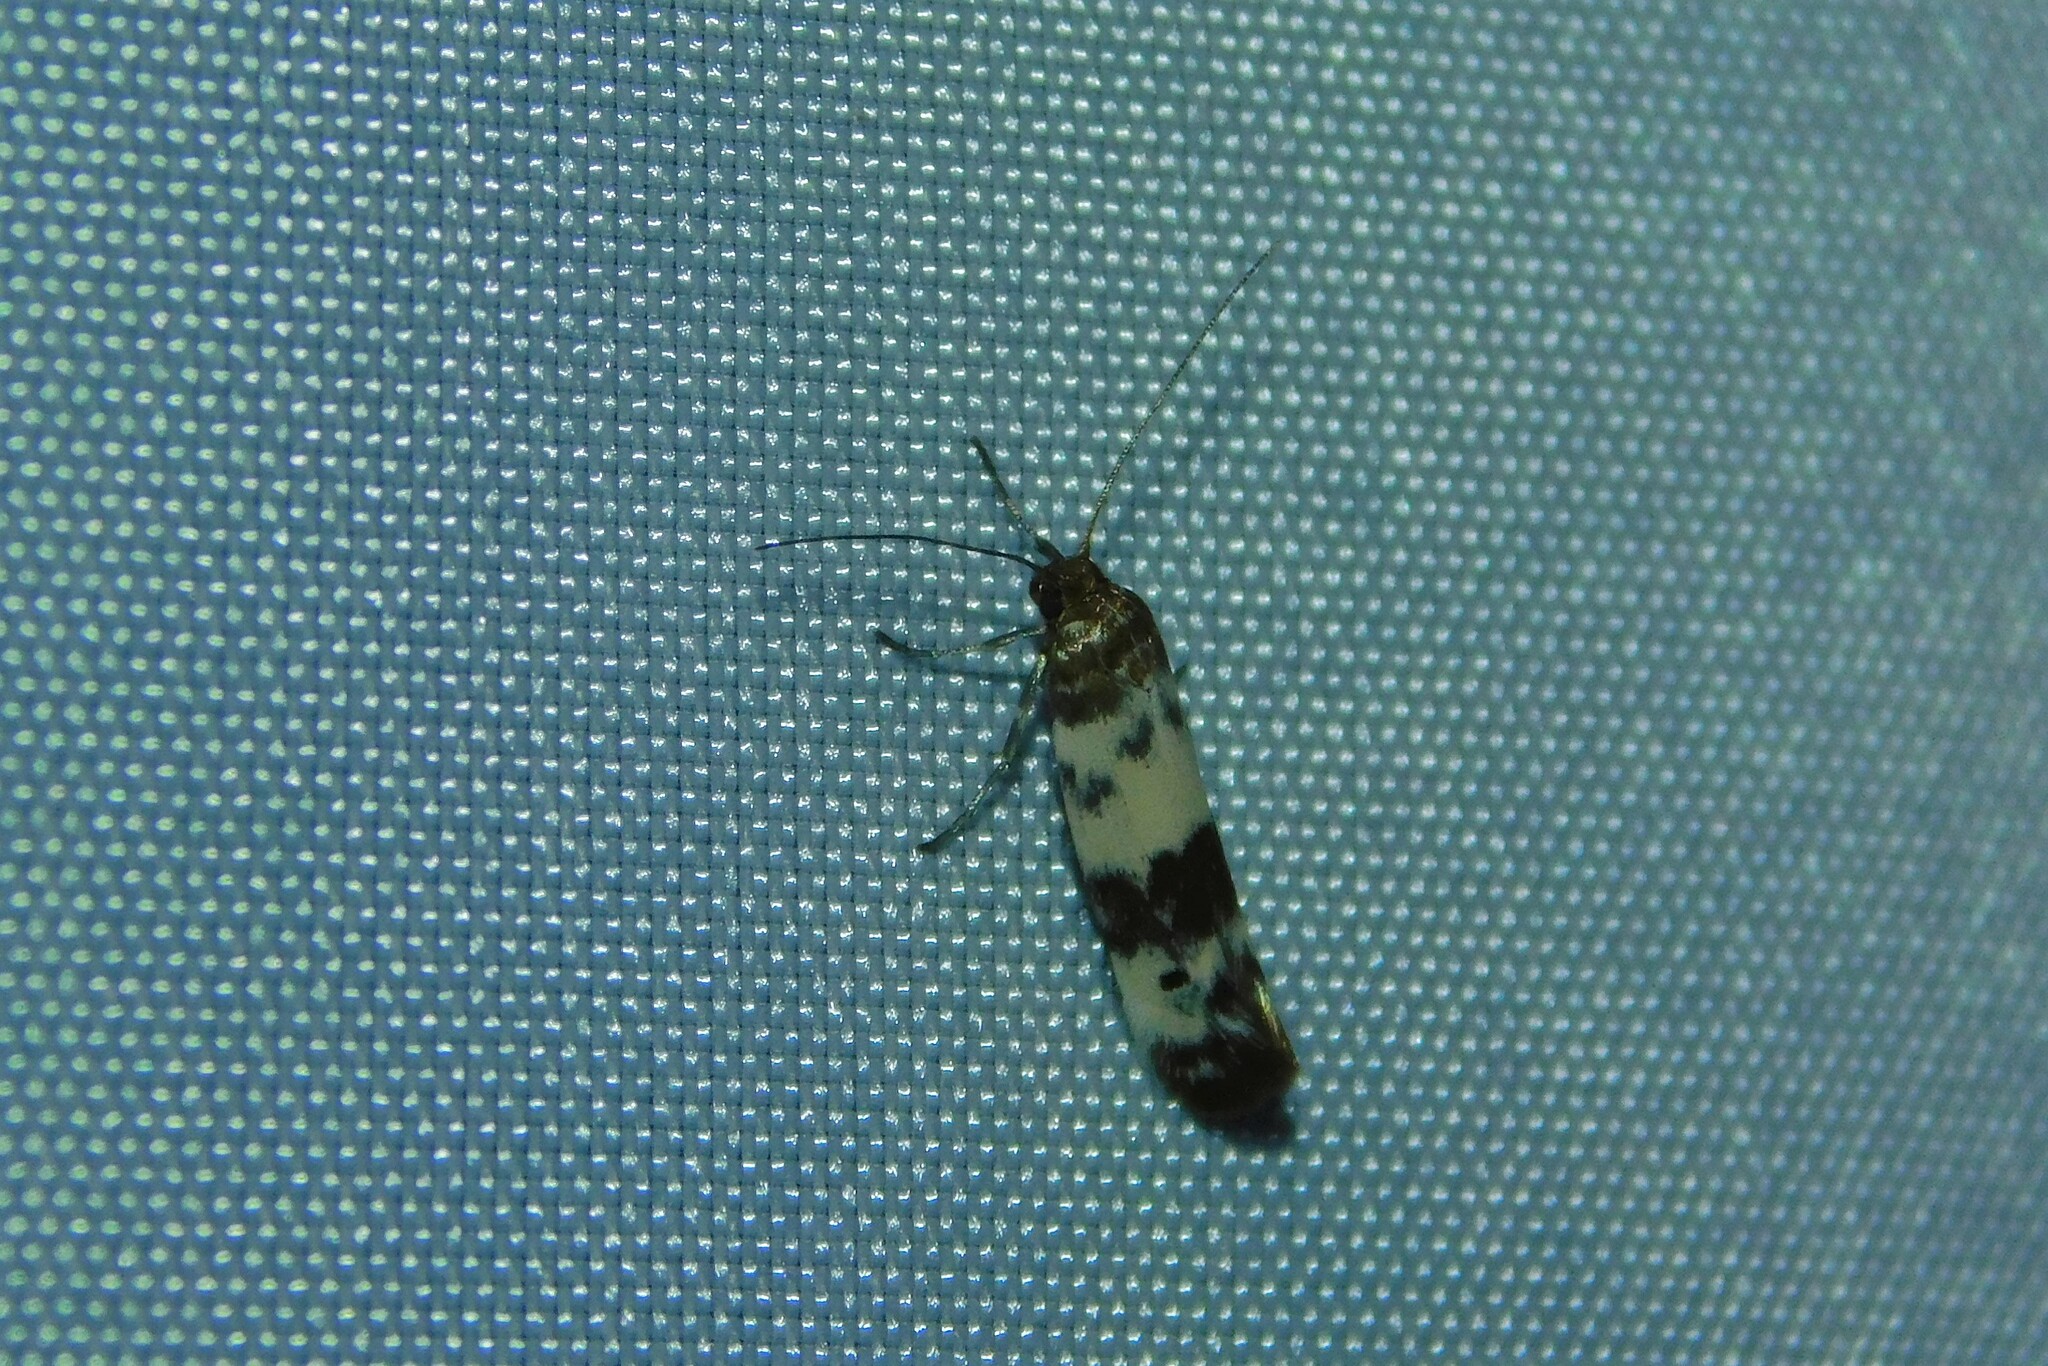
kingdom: Animalia
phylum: Arthropoda
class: Insecta
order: Lepidoptera
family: Scythrididae
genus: Enolmis
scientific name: Enolmis acanthella
